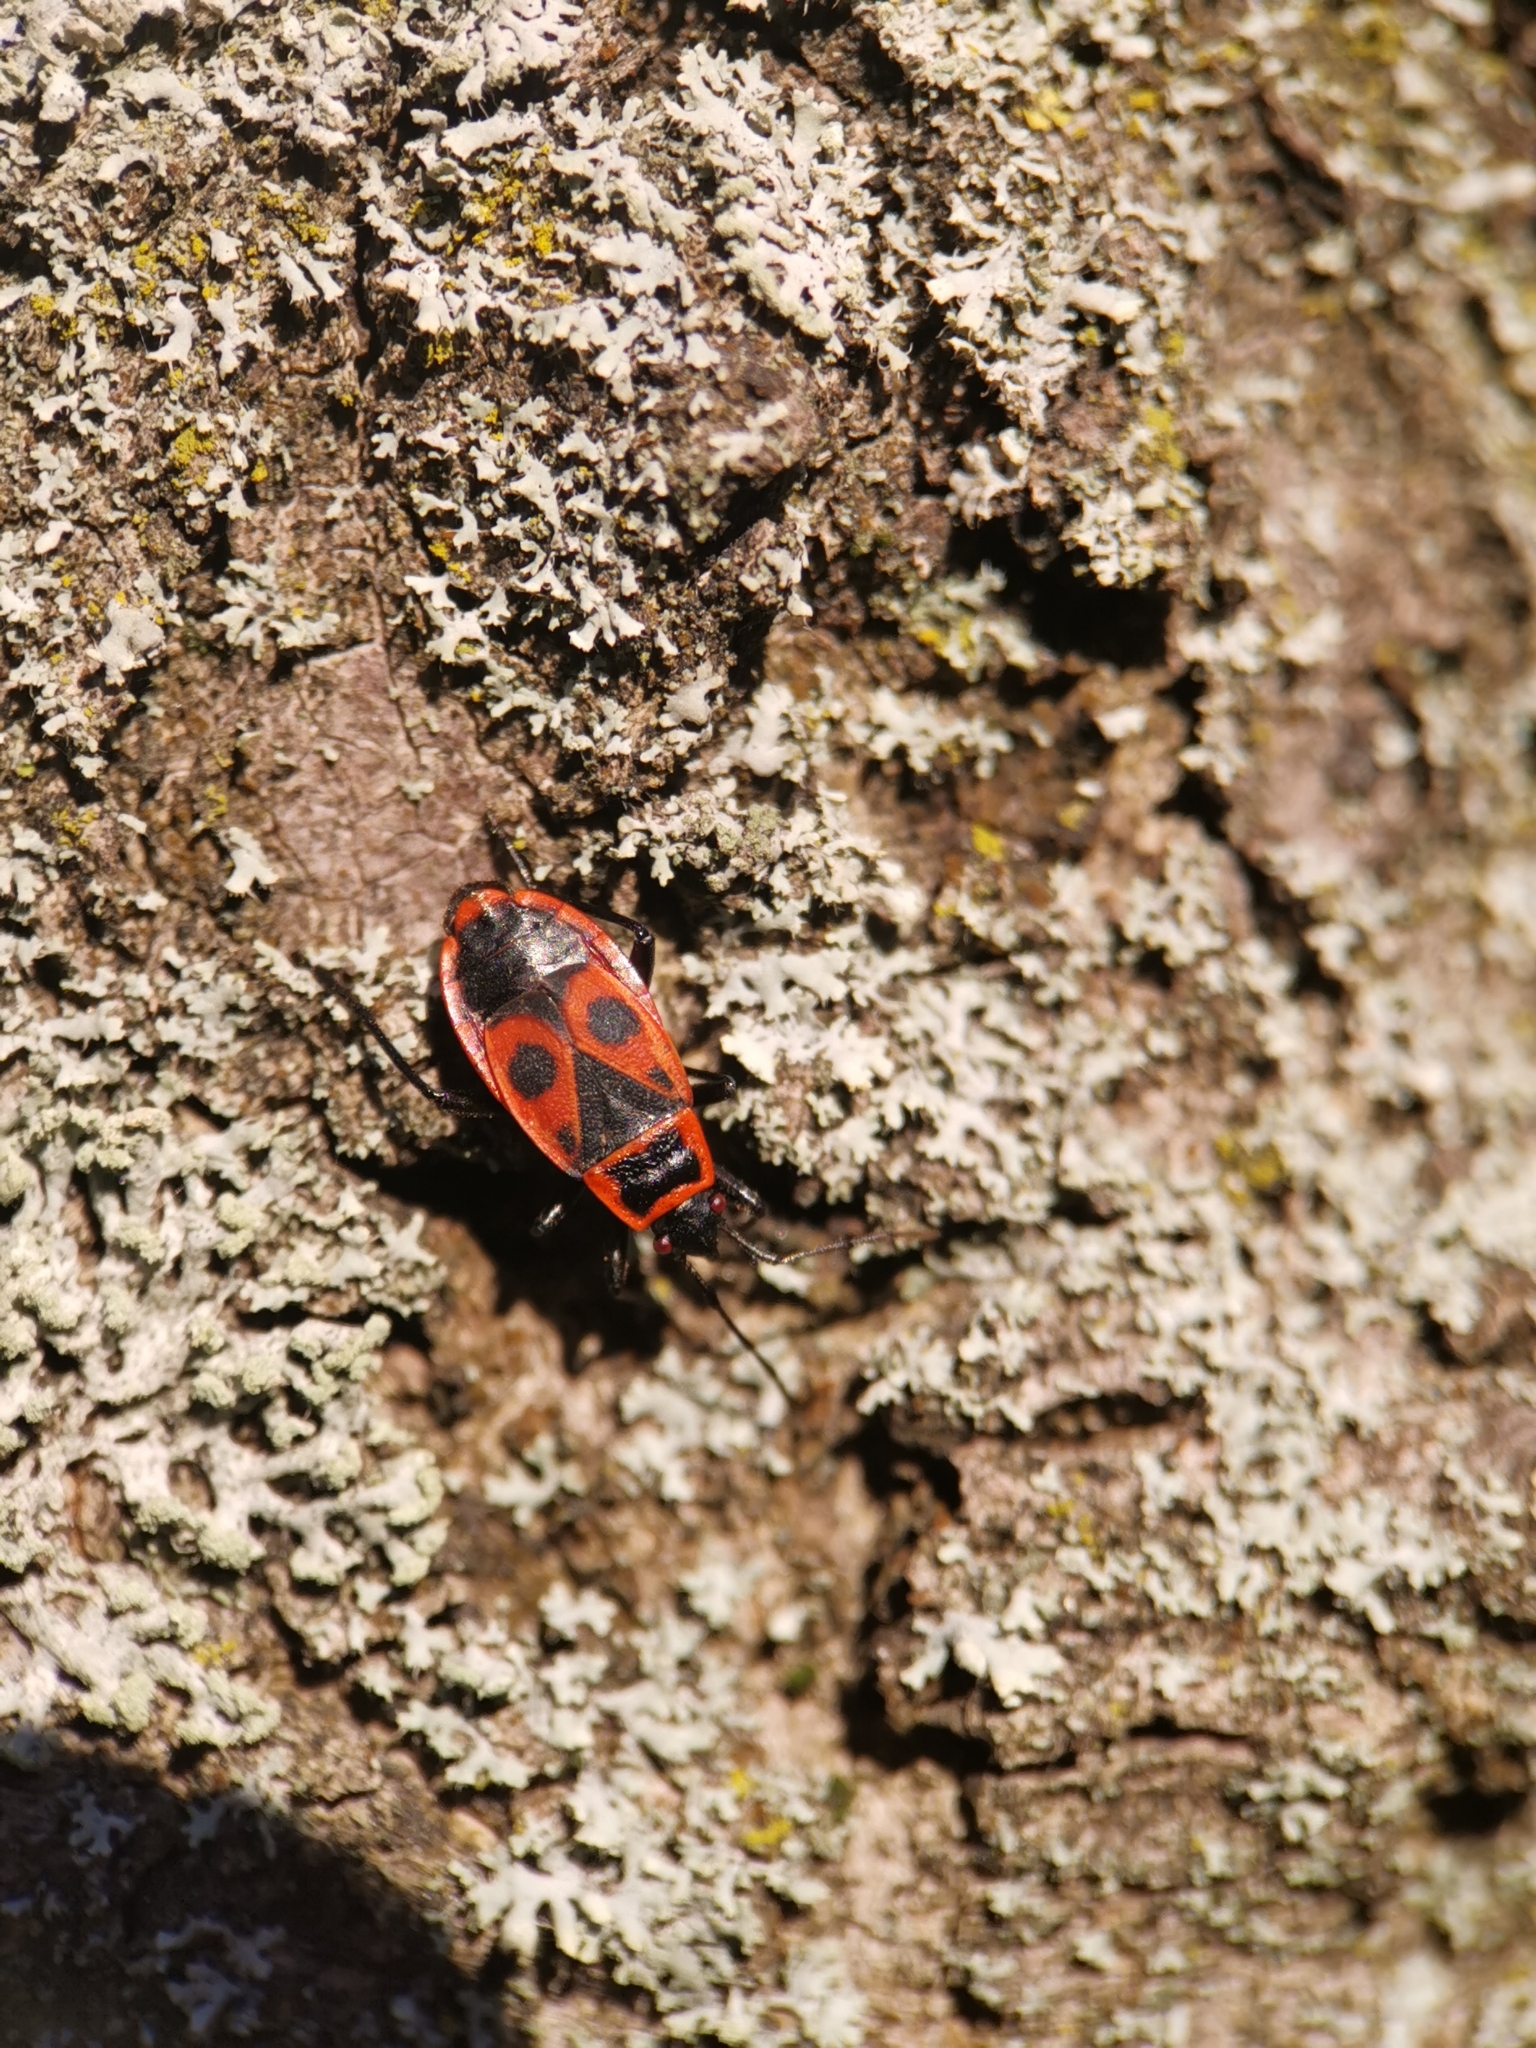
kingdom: Animalia
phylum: Arthropoda
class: Insecta
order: Hemiptera
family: Pyrrhocoridae
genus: Pyrrhocoris
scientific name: Pyrrhocoris apterus
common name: Firebug
